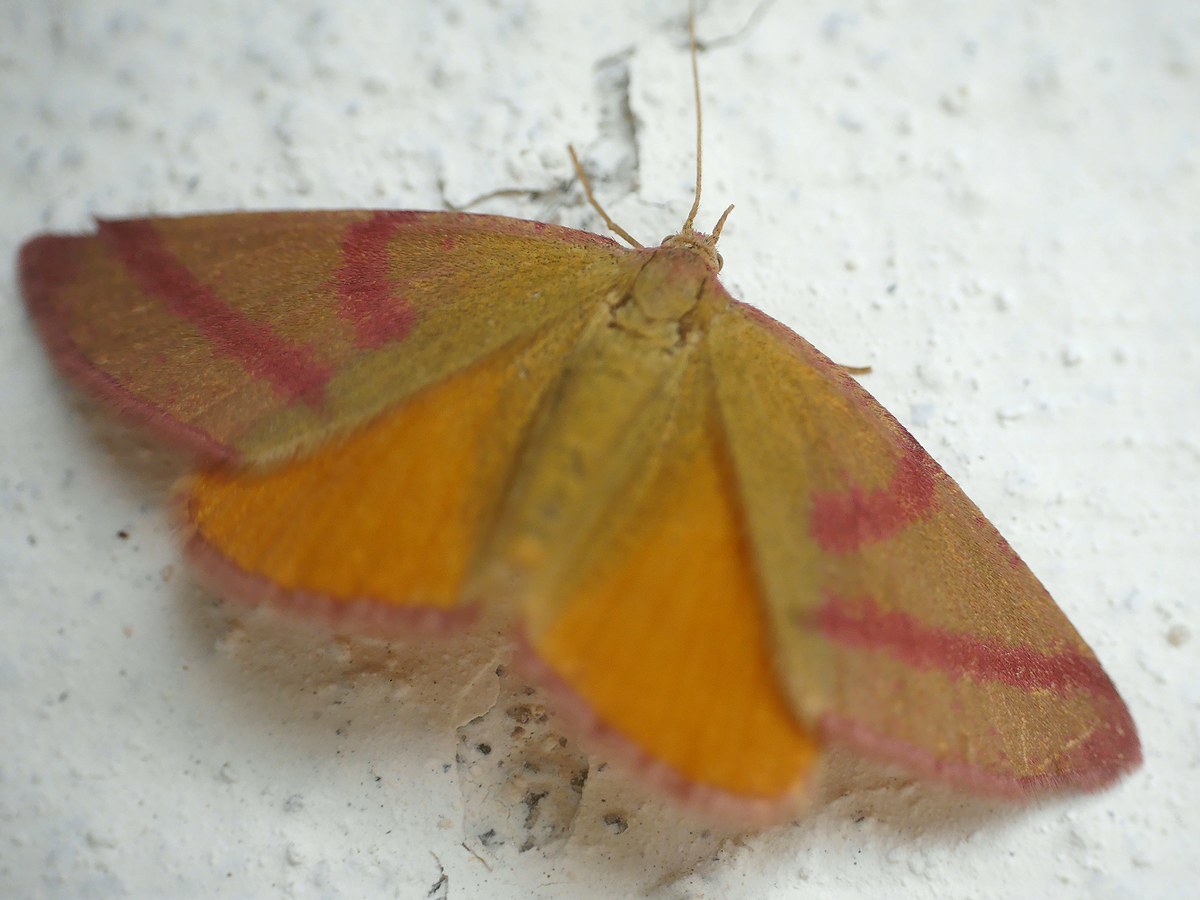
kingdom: Animalia
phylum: Arthropoda
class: Insecta
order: Lepidoptera
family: Geometridae
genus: Lythria
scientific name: Lythria purpuraria
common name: Purple-barred yellow
